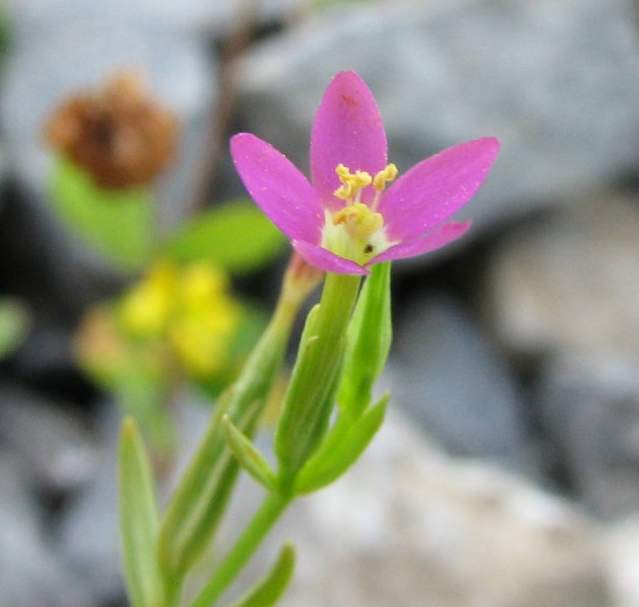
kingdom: Plantae
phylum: Tracheophyta
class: Magnoliopsida
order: Gentianales
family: Gentianaceae
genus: Centaurium
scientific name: Centaurium pulchellum
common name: Lesser centaury
